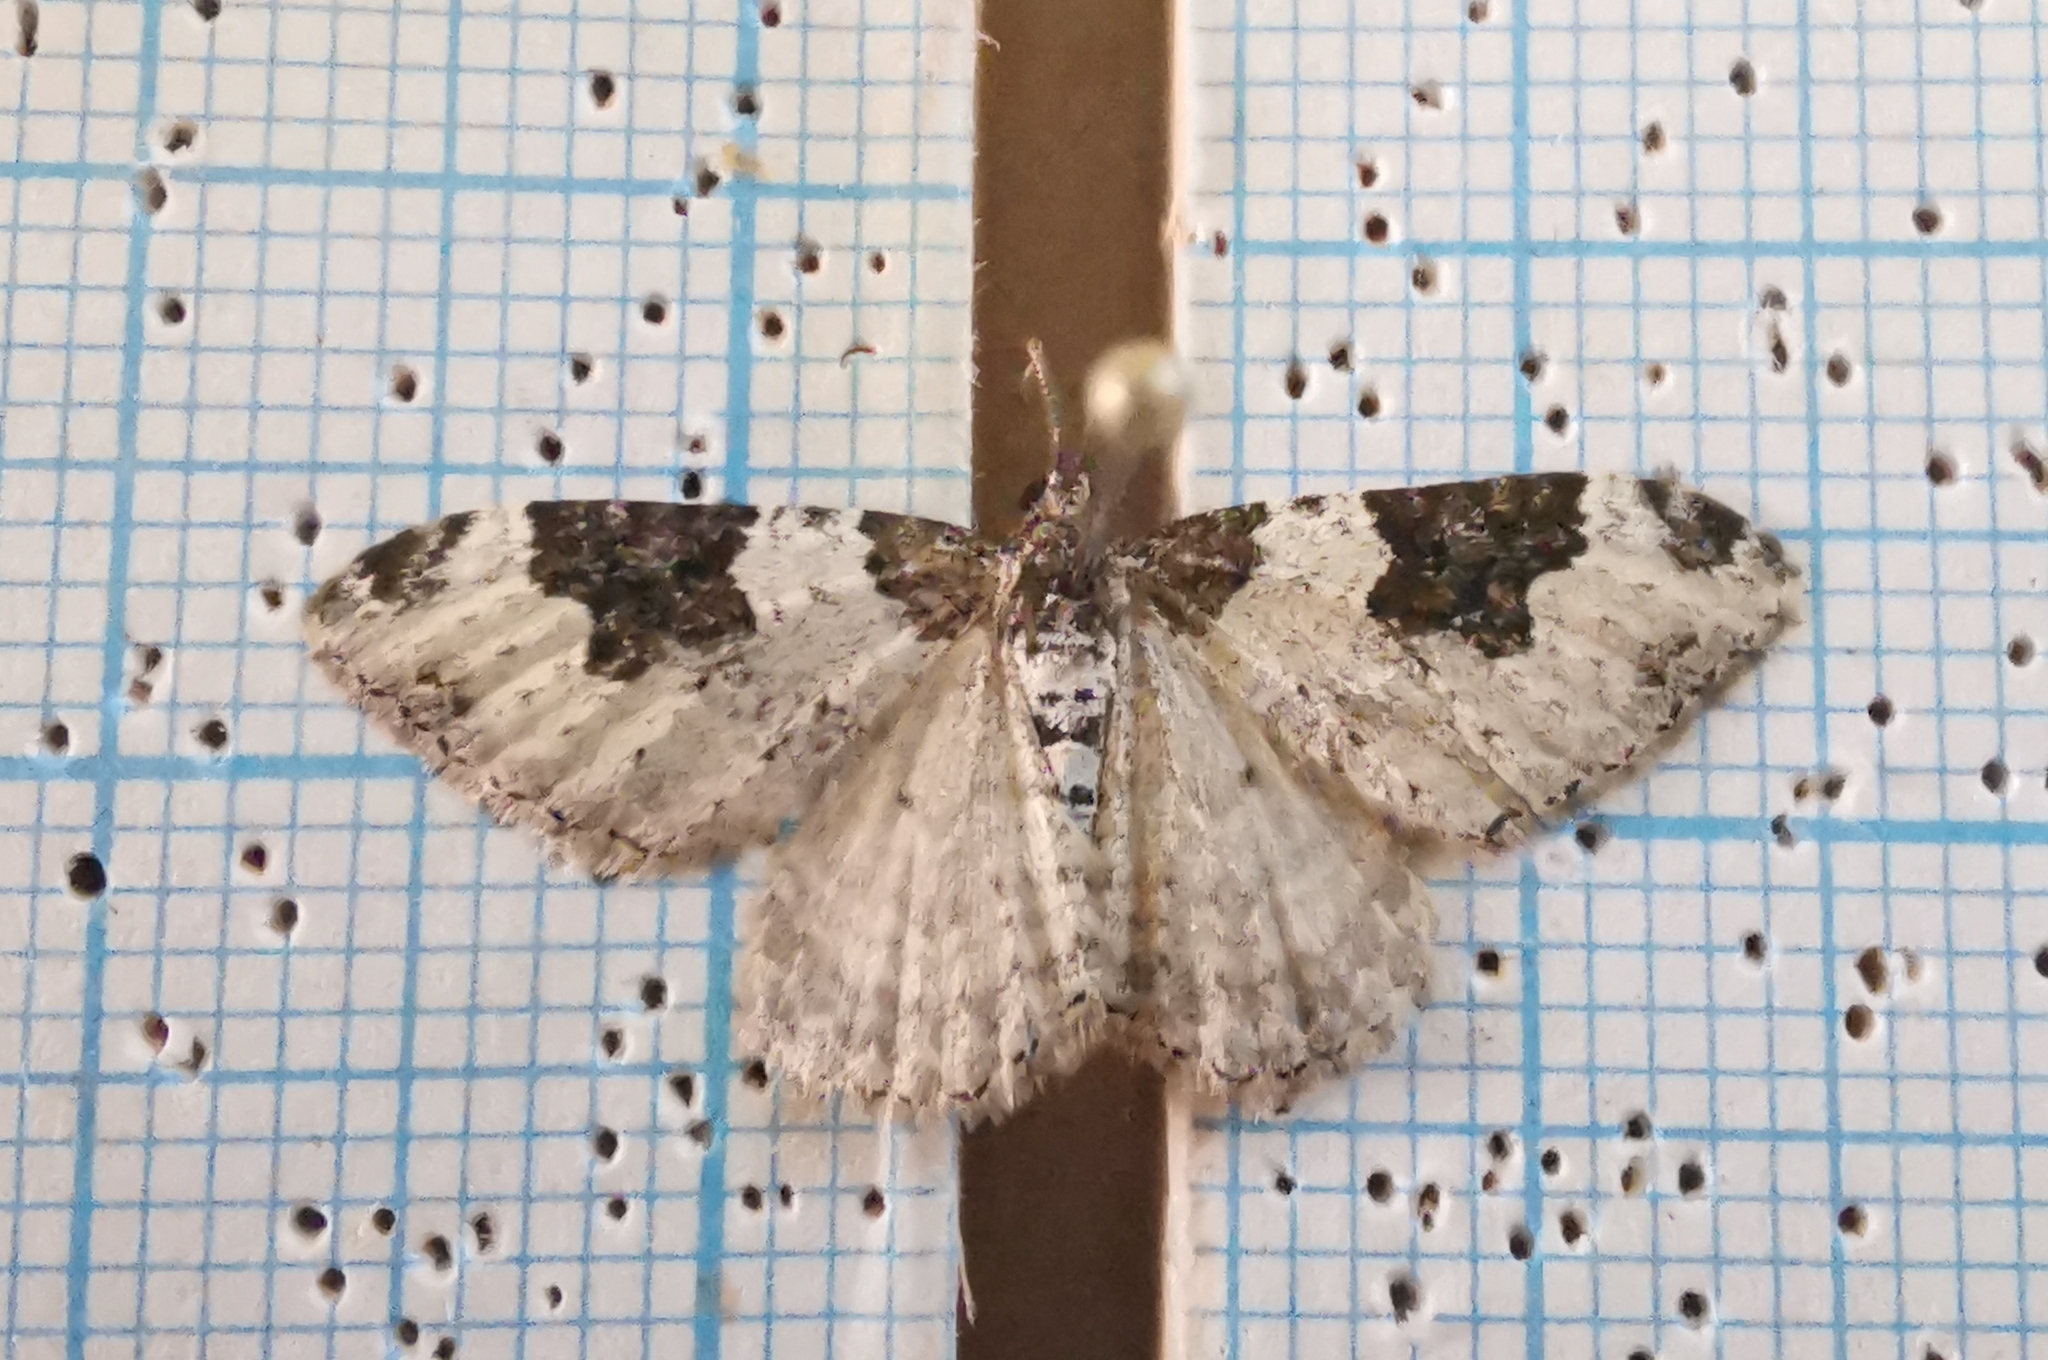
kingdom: Animalia
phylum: Arthropoda
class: Insecta
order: Lepidoptera
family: Geometridae
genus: Xanthorhoe
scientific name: Xanthorhoe fluctuata
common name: Garden carpet
